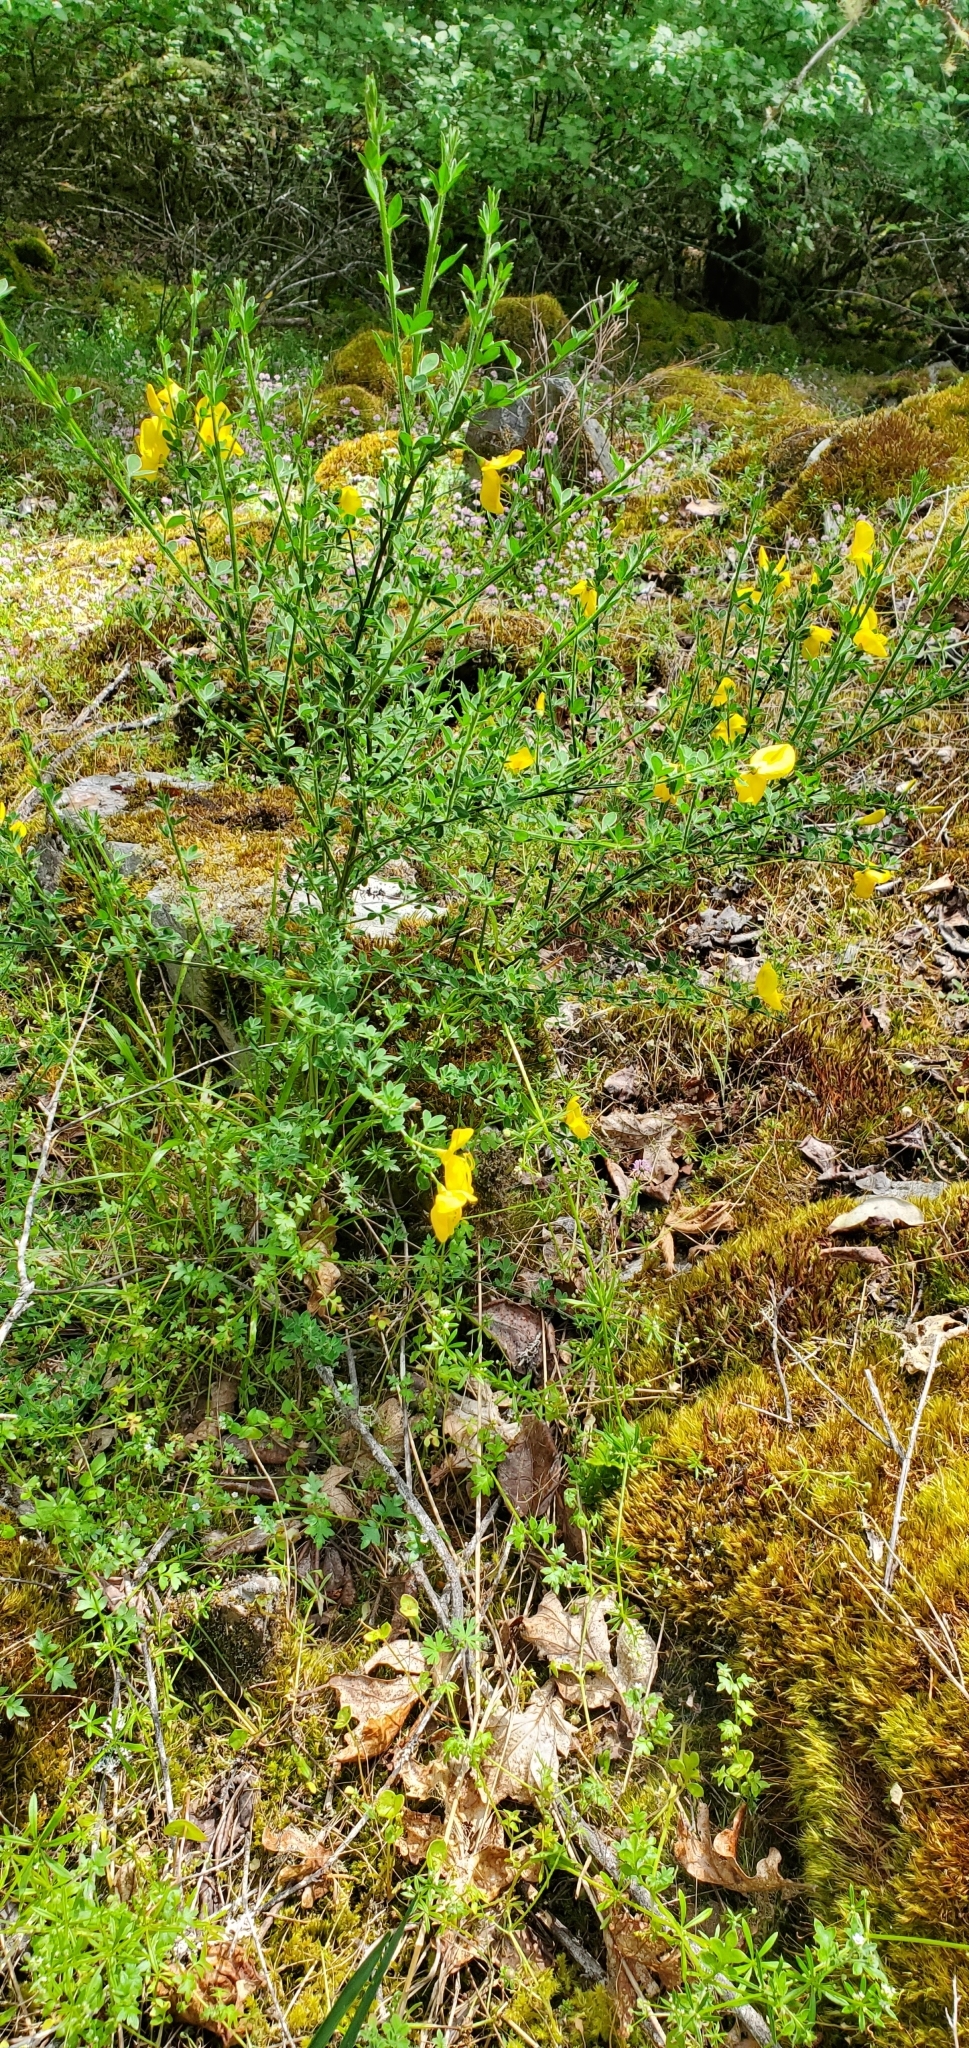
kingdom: Plantae
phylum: Tracheophyta
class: Magnoliopsida
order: Fabales
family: Fabaceae
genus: Cytisus
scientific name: Cytisus scoparius
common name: Scotch broom
